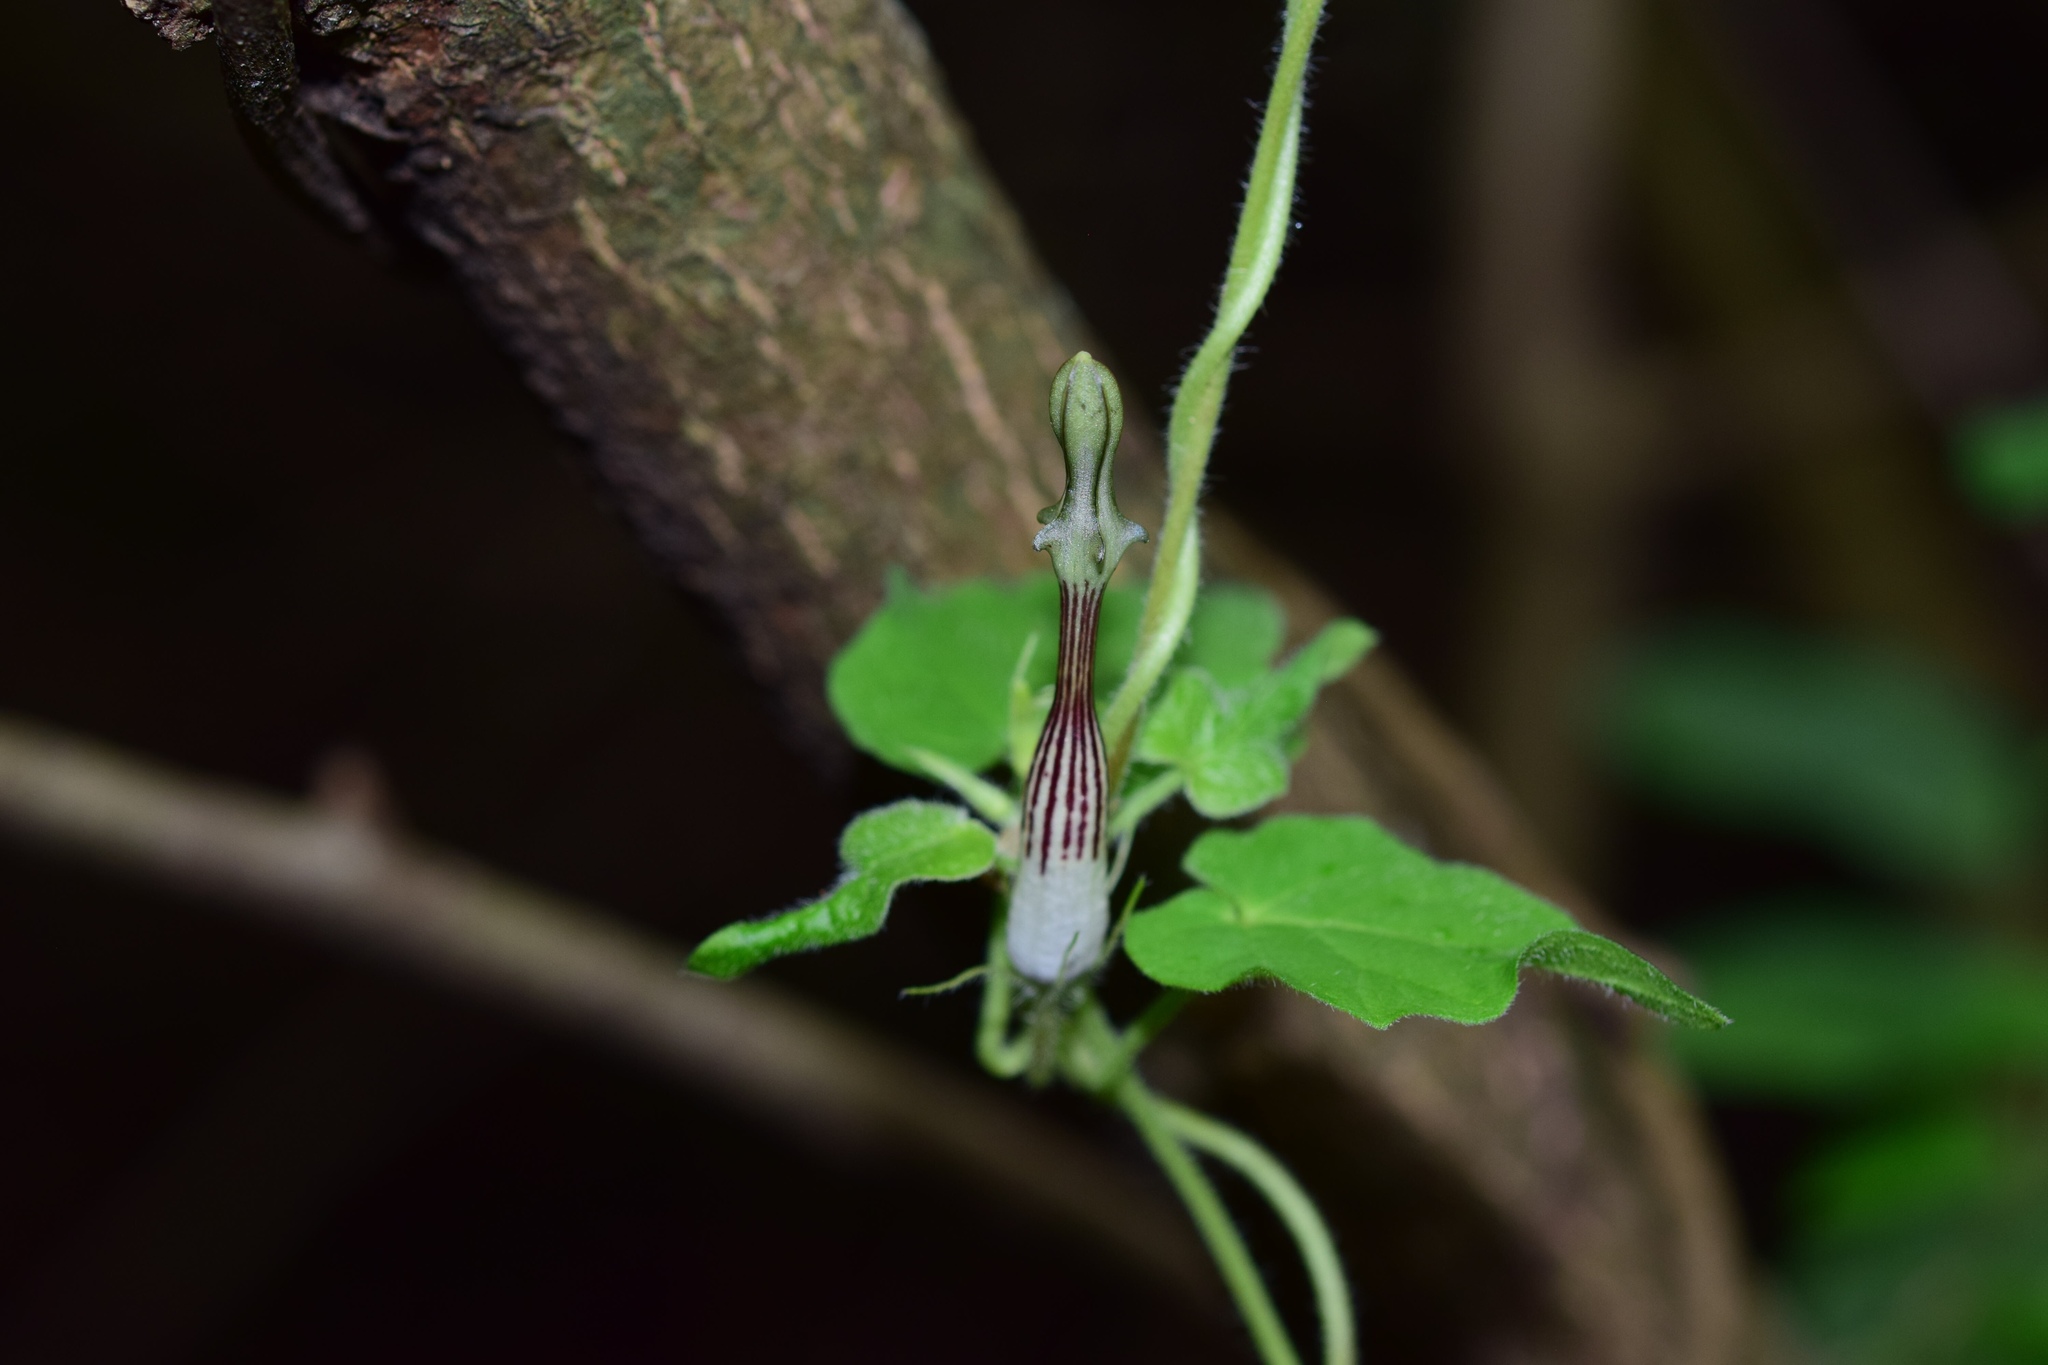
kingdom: Plantae
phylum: Tracheophyta
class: Magnoliopsida
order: Gentianales
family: Apocynaceae
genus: Ceropegia
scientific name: Ceropegia meyeri
